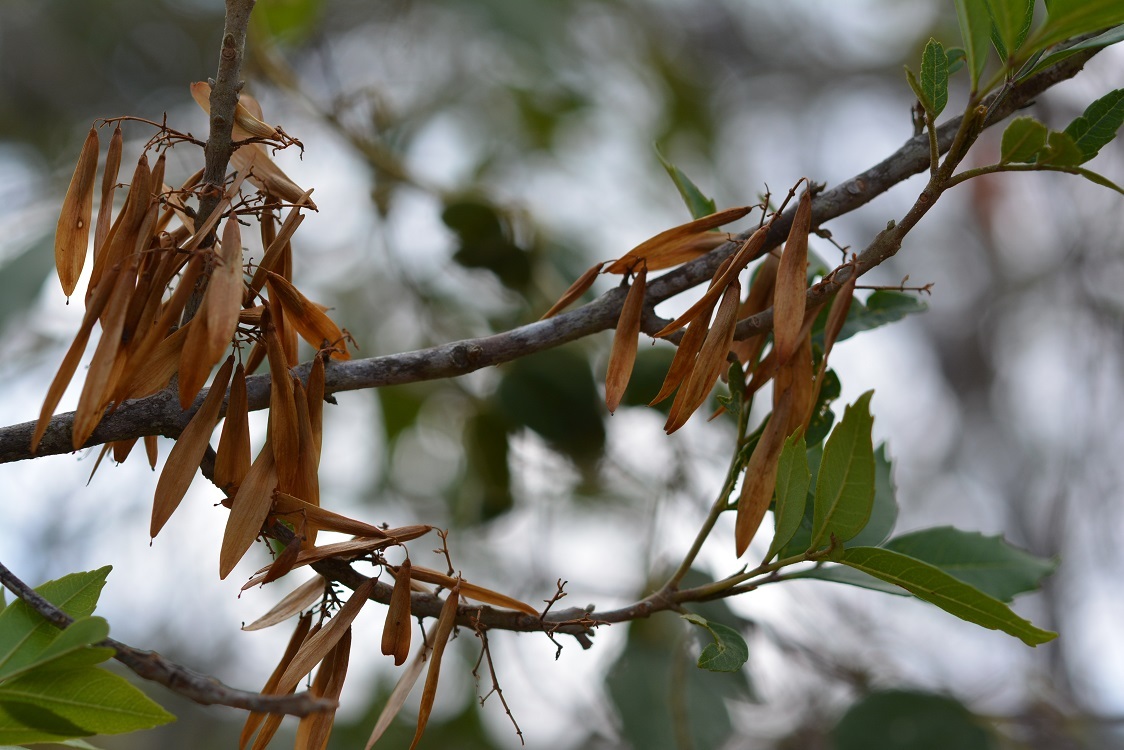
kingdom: Plantae
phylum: Tracheophyta
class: Magnoliopsida
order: Lamiales
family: Oleaceae
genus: Fraxinus
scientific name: Fraxinus purpusii
